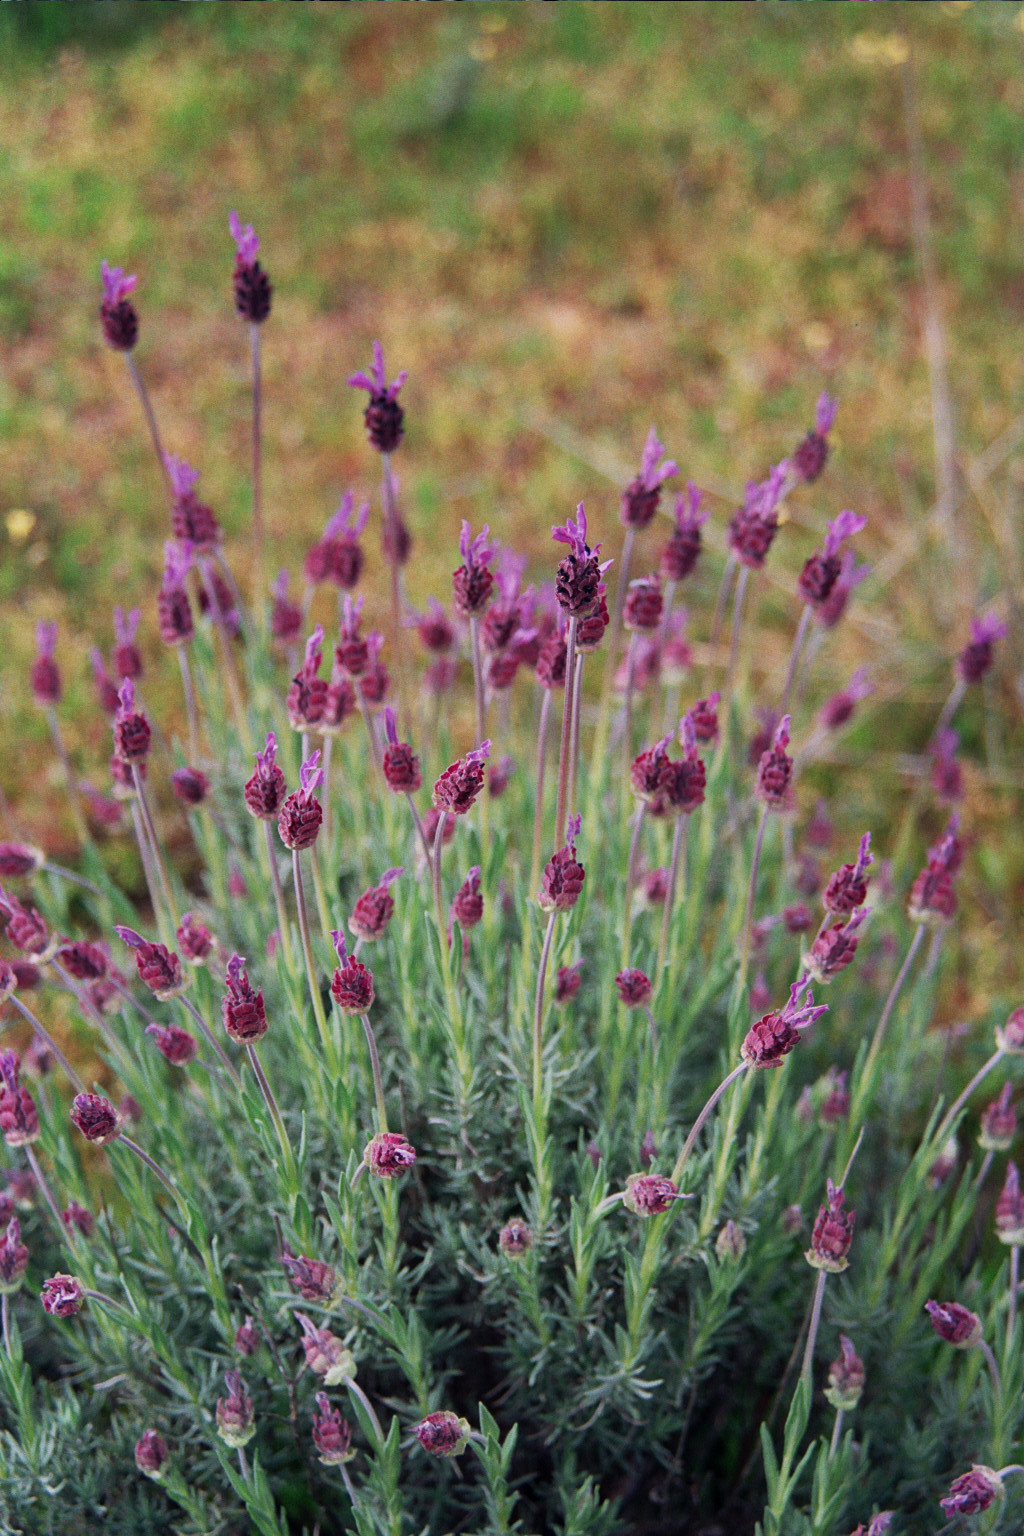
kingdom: Plantae
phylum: Tracheophyta
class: Magnoliopsida
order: Lamiales
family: Lamiaceae
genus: Lavandula
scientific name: Lavandula pedunculata
